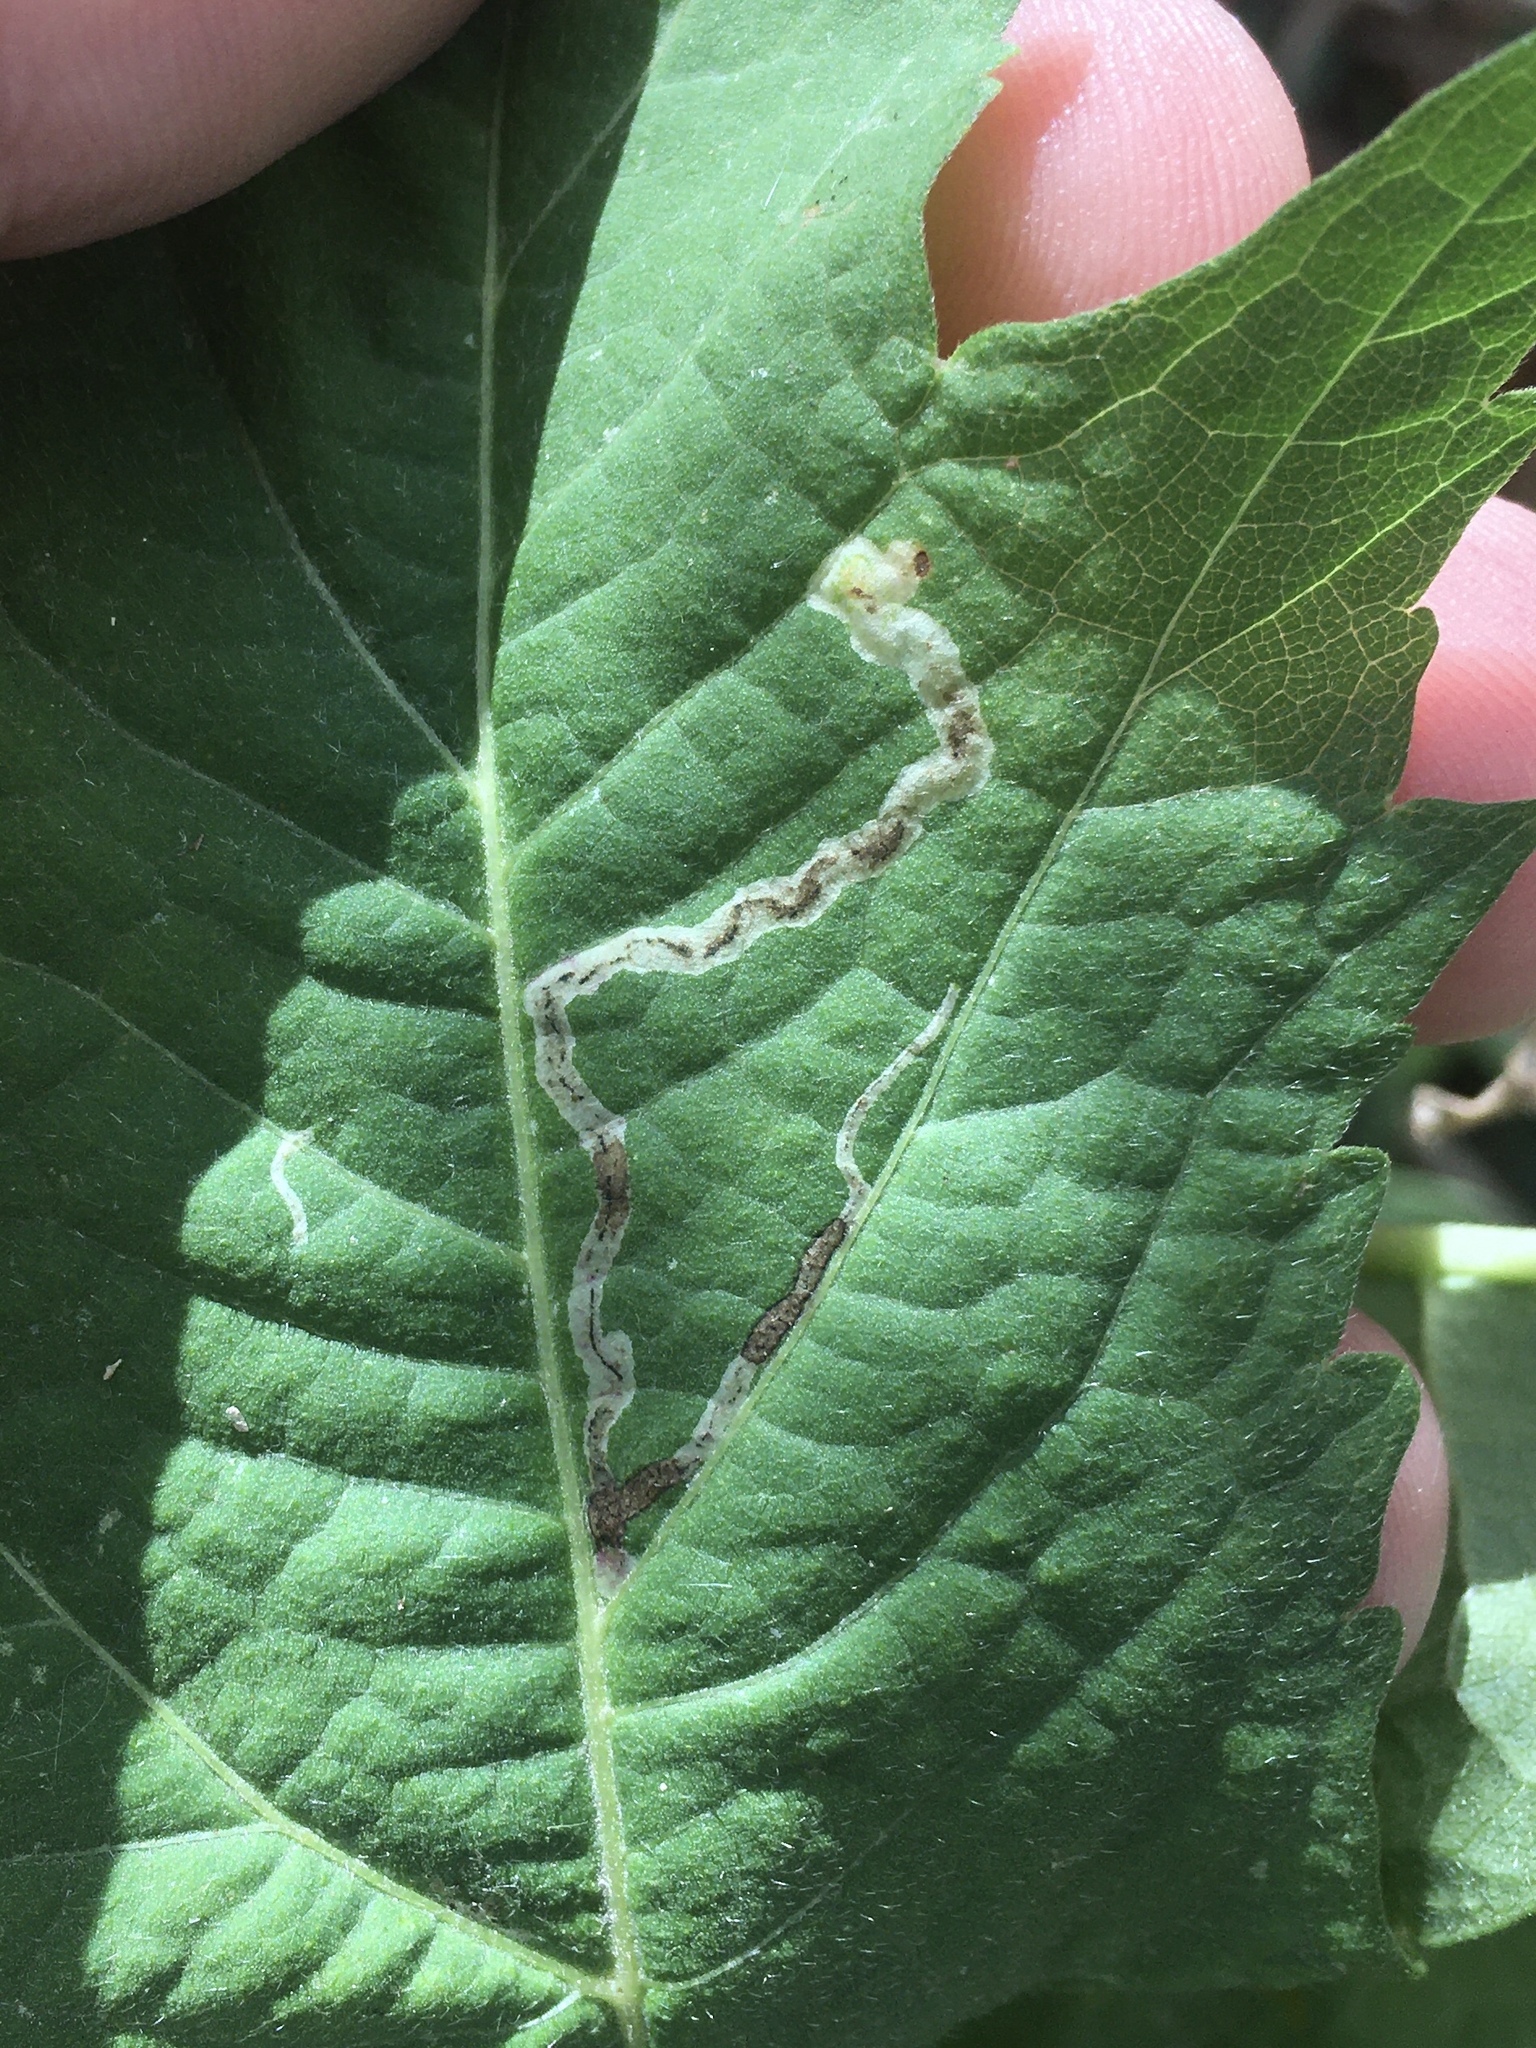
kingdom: Animalia
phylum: Arthropoda
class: Insecta
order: Diptera
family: Agromyzidae
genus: Calycomyza
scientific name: Calycomyza malvae
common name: Mallow leaf miner
